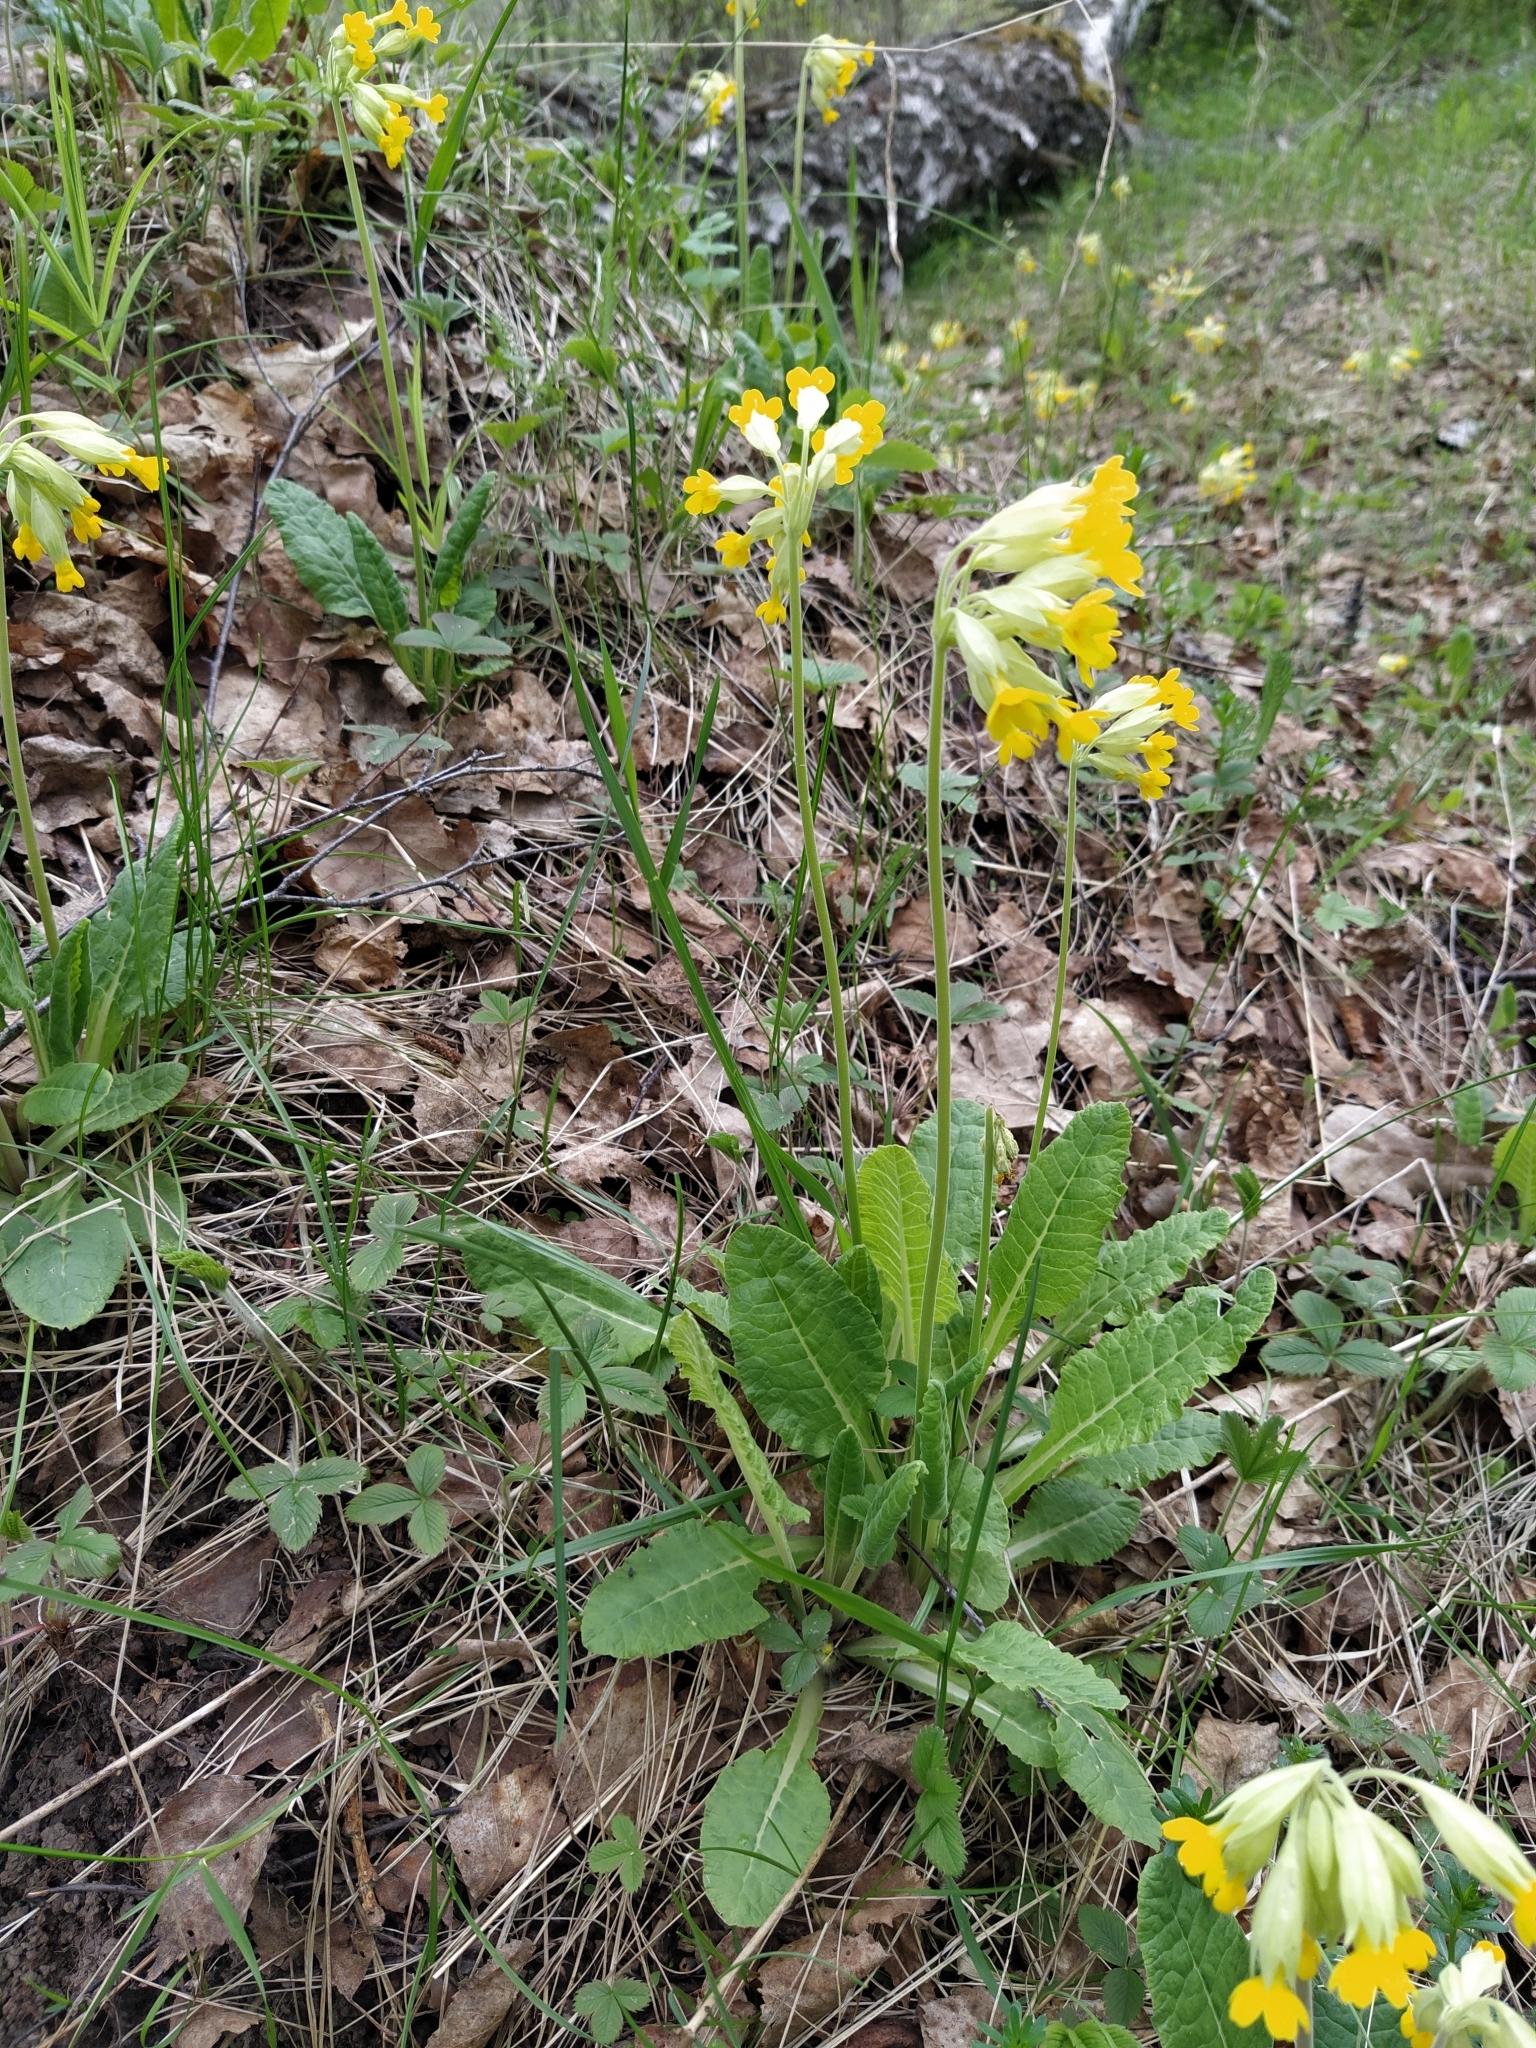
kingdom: Plantae
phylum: Tracheophyta
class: Magnoliopsida
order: Ericales
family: Primulaceae
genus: Primula
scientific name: Primula veris
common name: Cowslip
